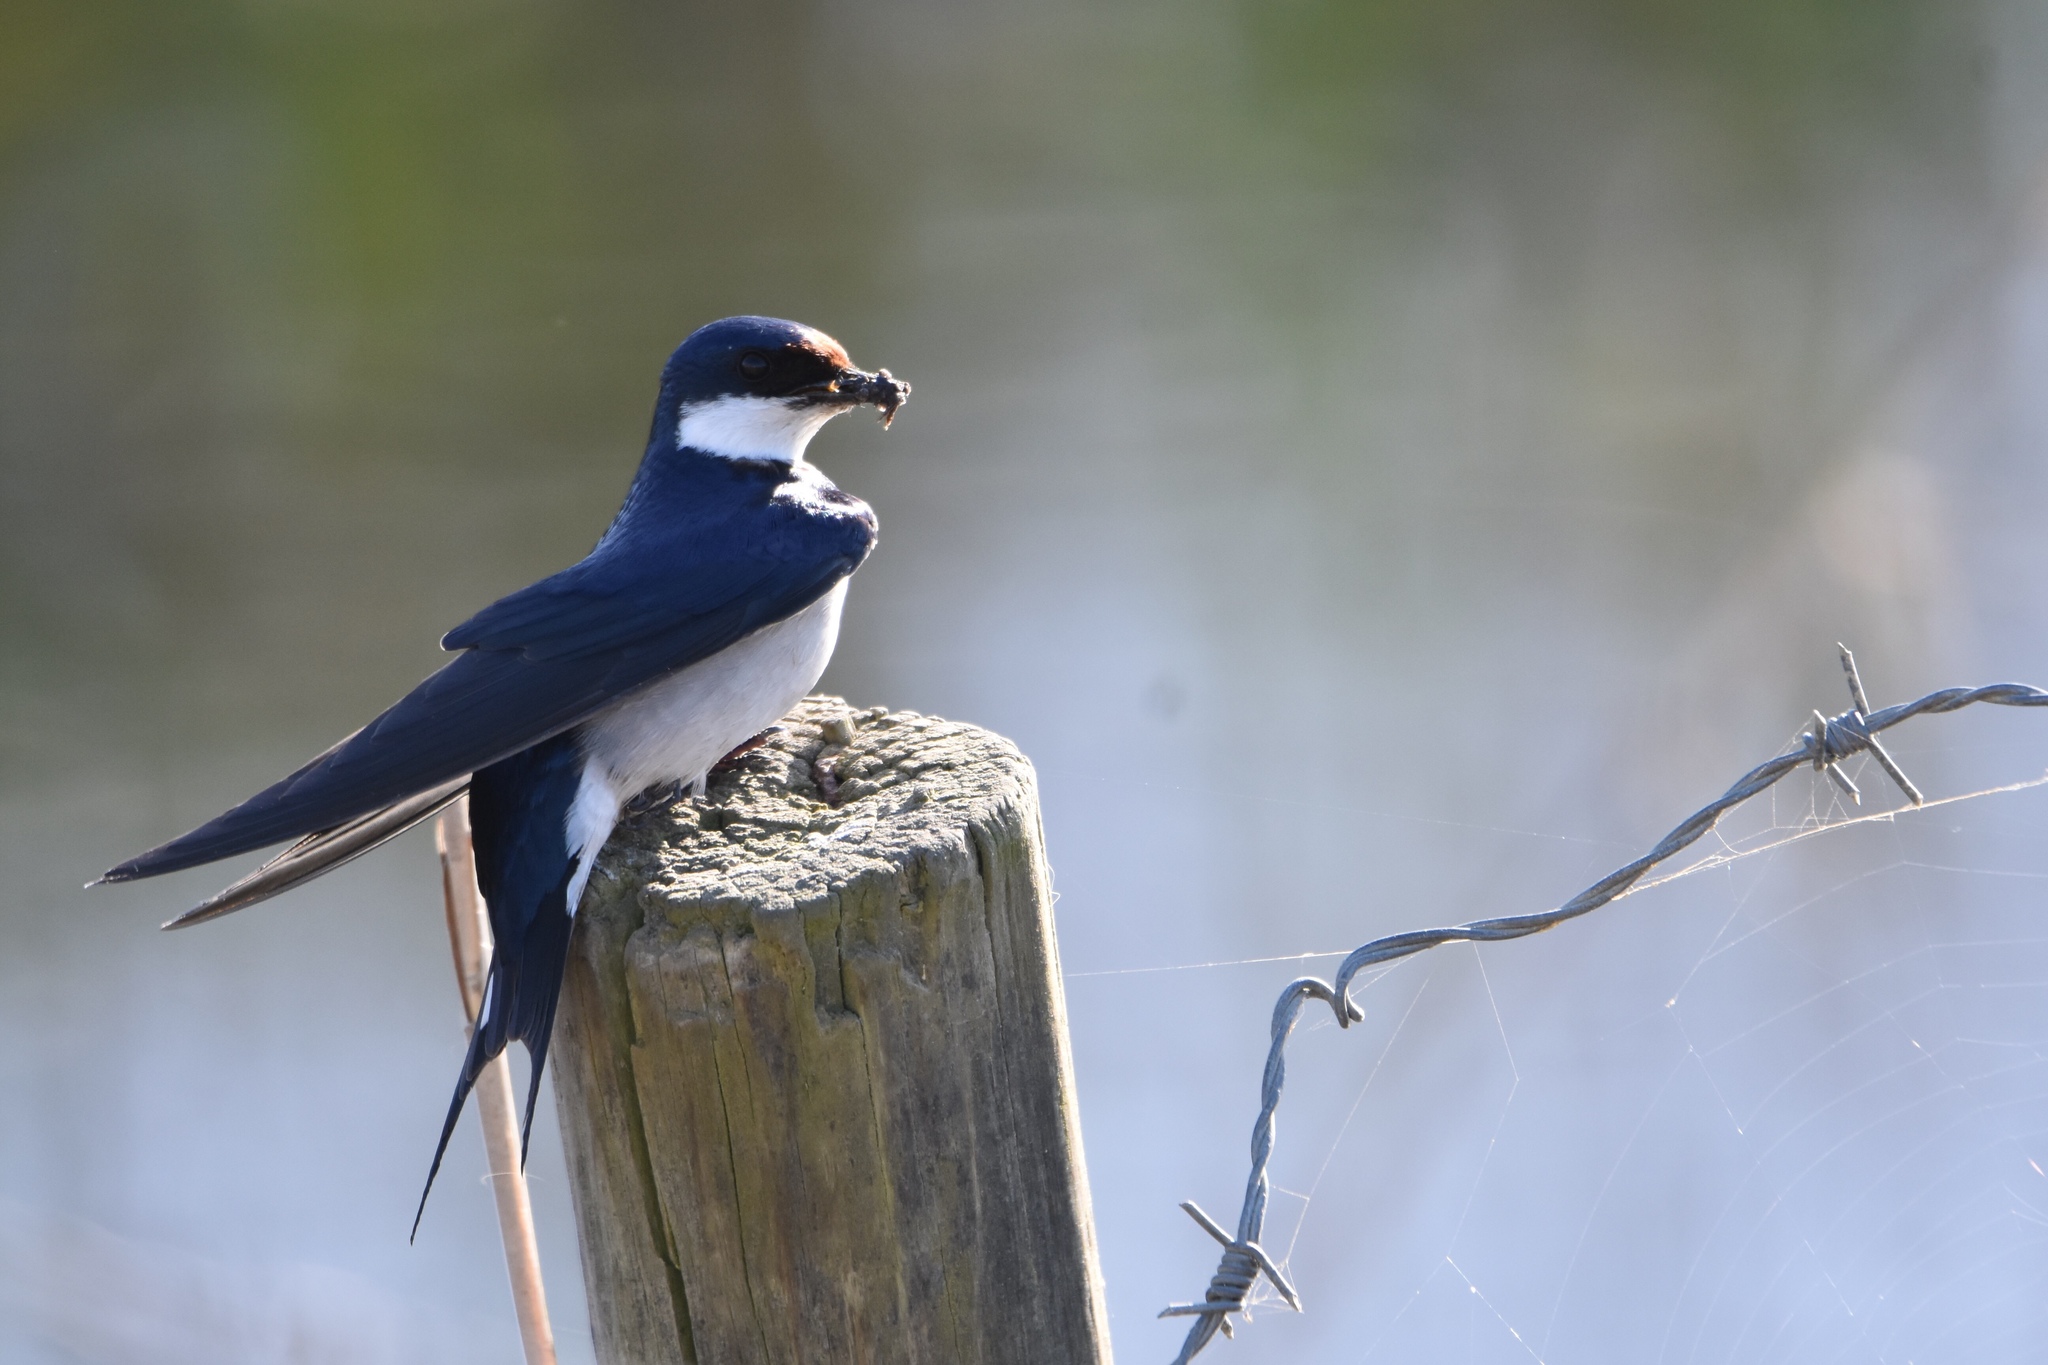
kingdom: Animalia
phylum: Chordata
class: Aves
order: Passeriformes
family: Hirundinidae
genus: Hirundo
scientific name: Hirundo albigularis
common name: White-throated swallow
